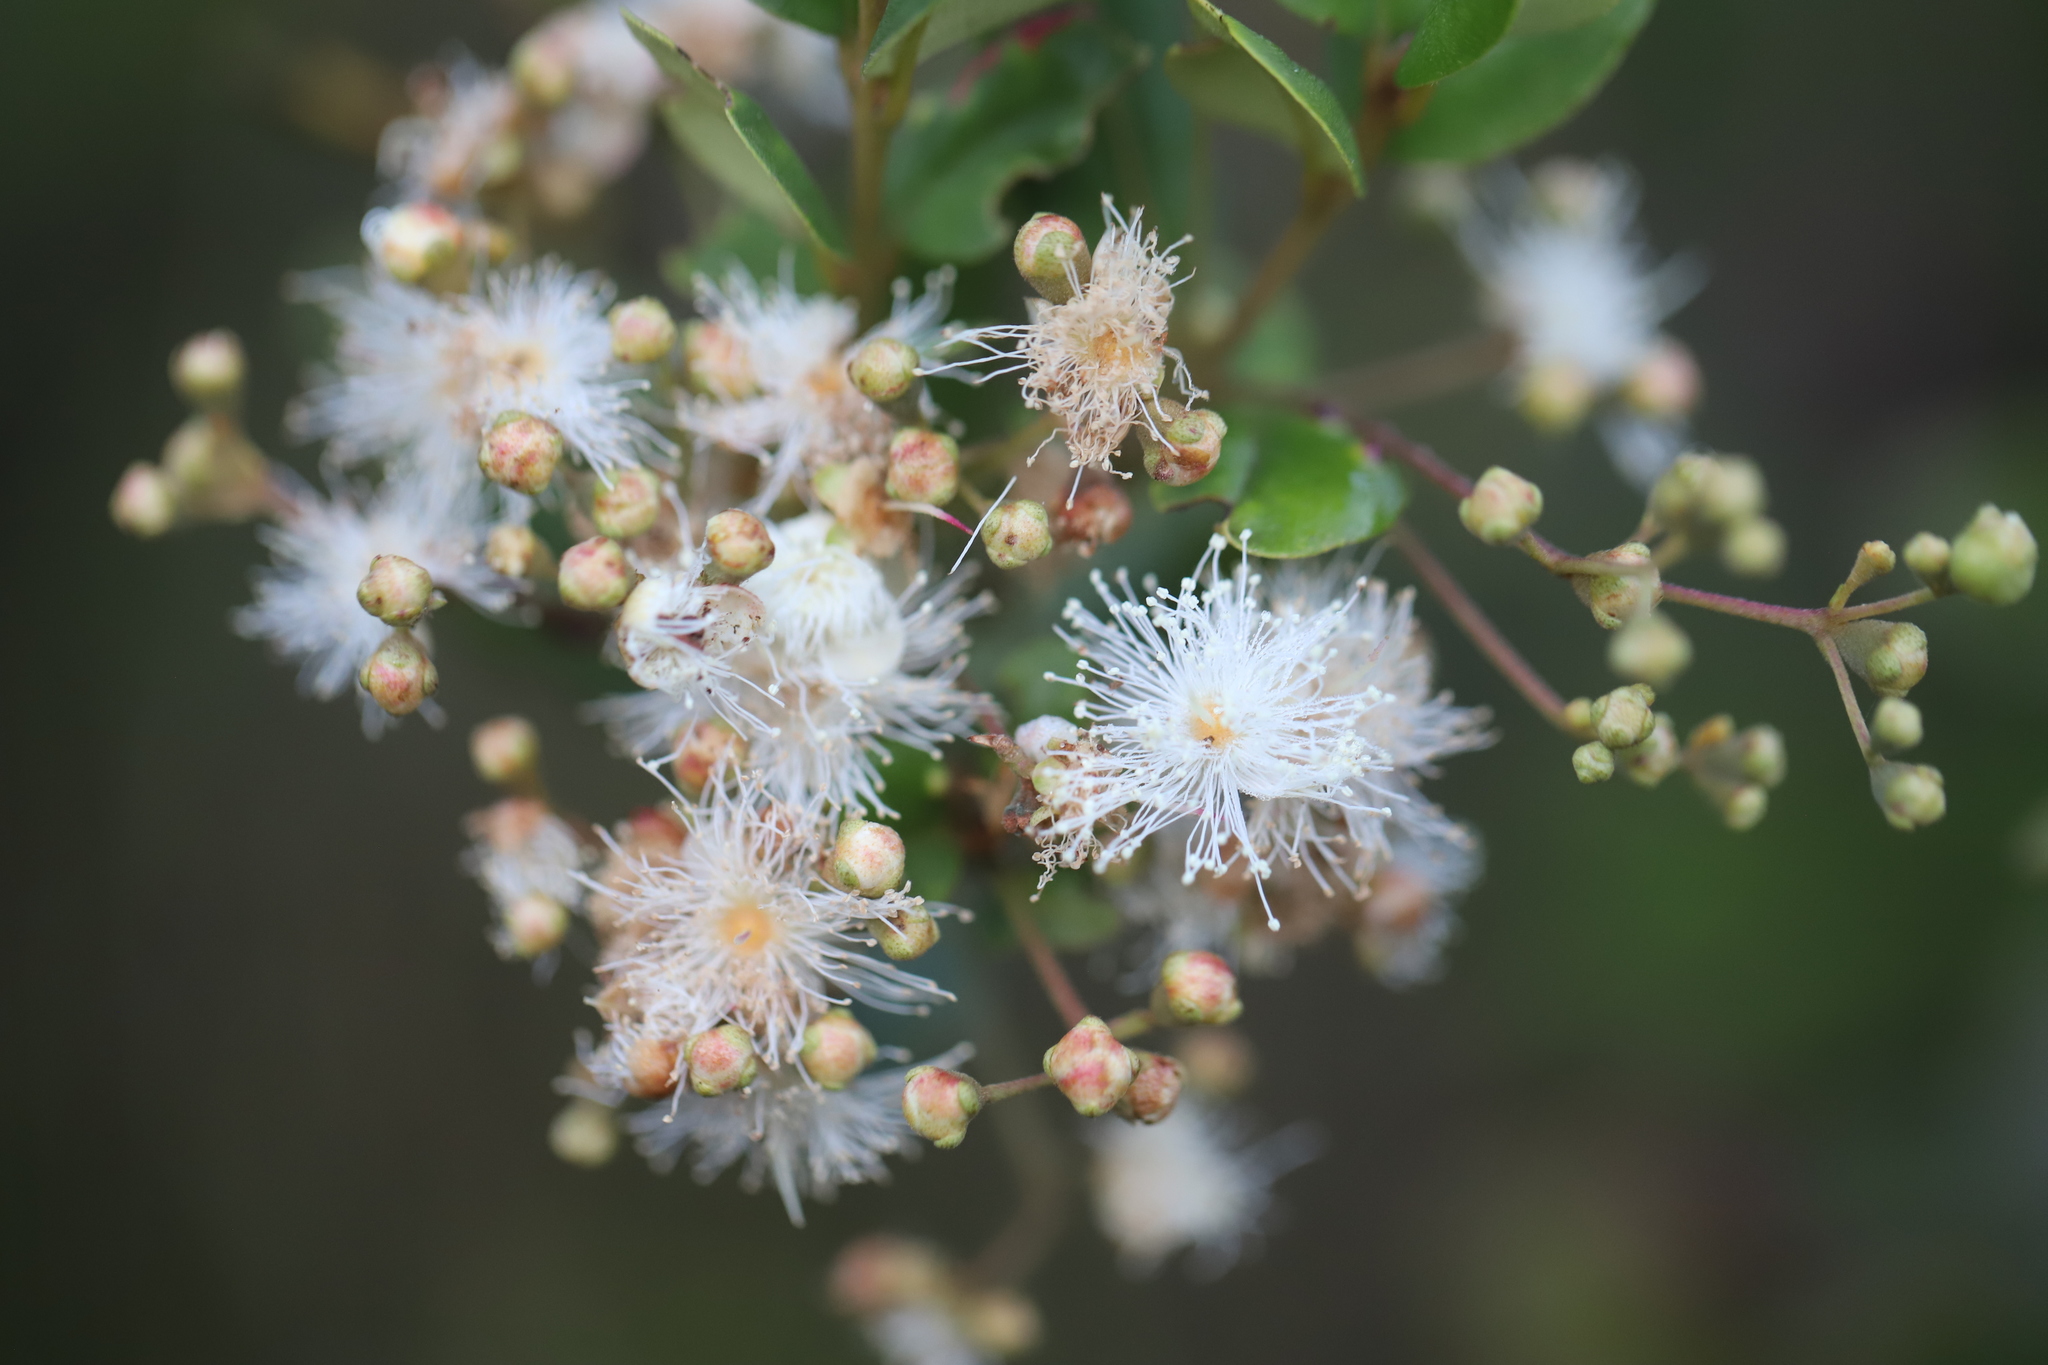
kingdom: Plantae
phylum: Tracheophyta
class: Magnoliopsida
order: Myrtales
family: Myrtaceae
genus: Luma
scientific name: Luma apiculata
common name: Chilean myrtle
